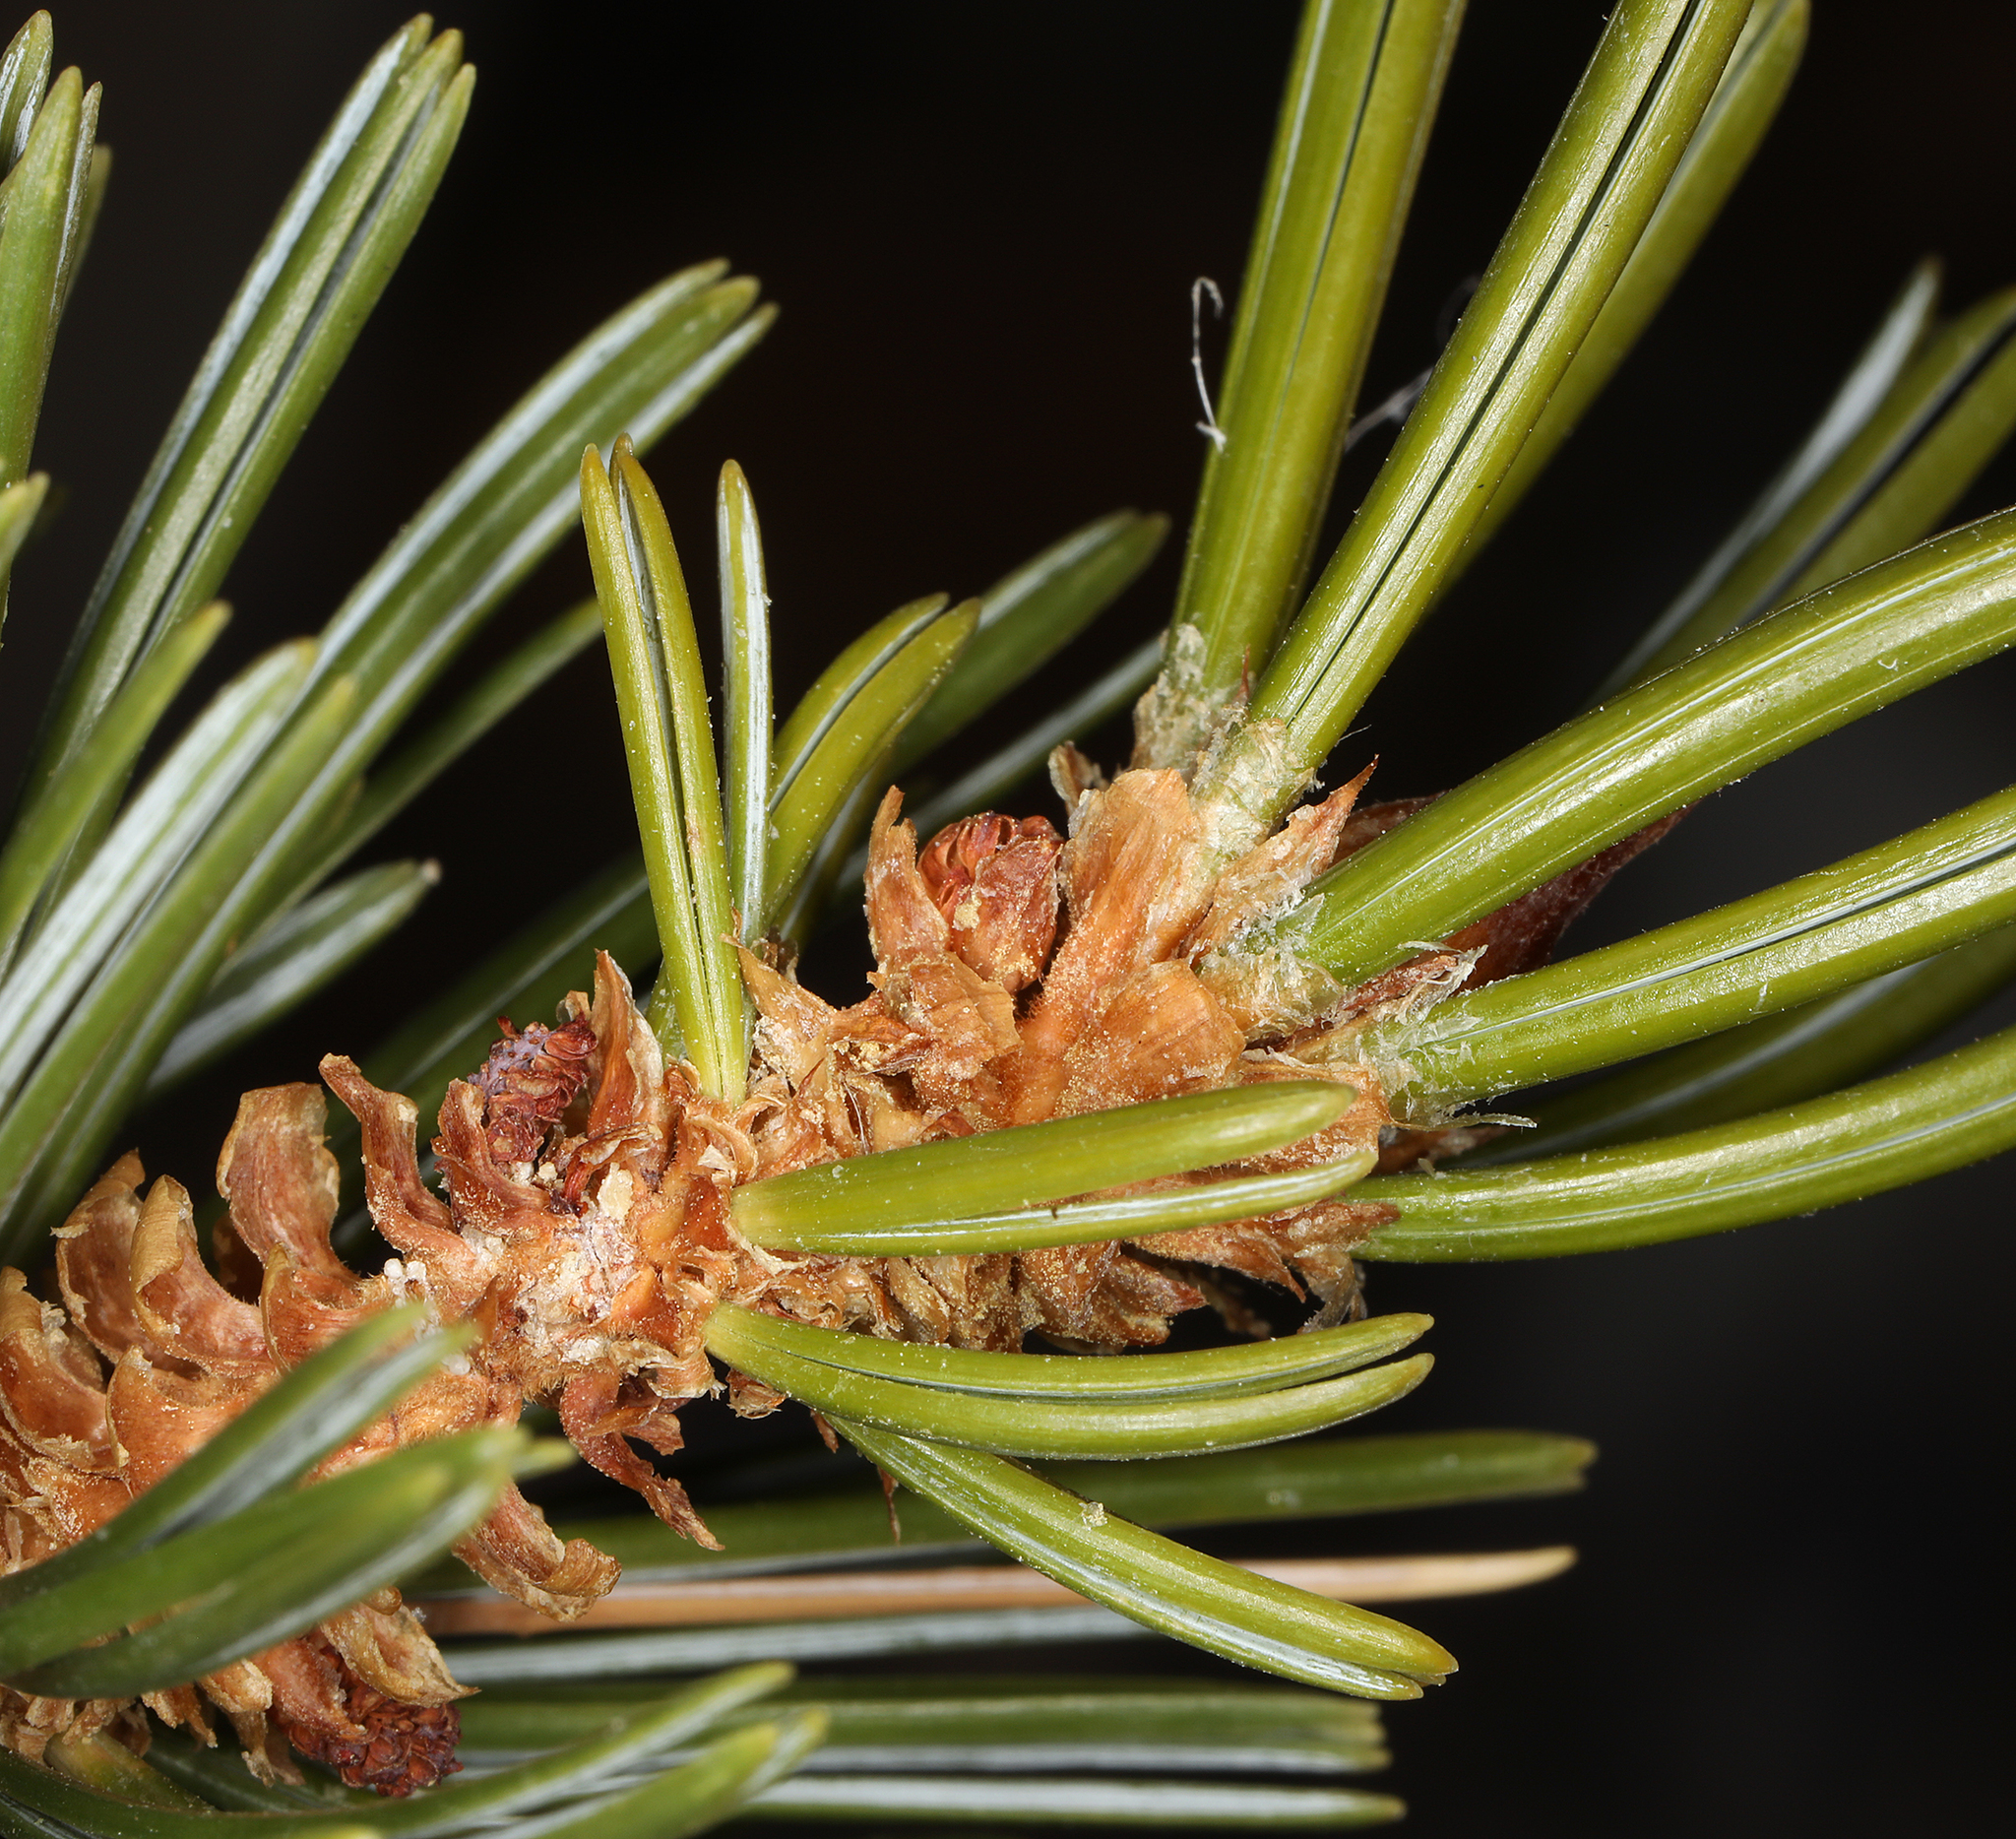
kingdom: Plantae
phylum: Tracheophyta
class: Pinopsida
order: Pinales
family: Pinaceae
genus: Pinus
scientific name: Pinus longaeva
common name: Intermountain bristlecone pine
